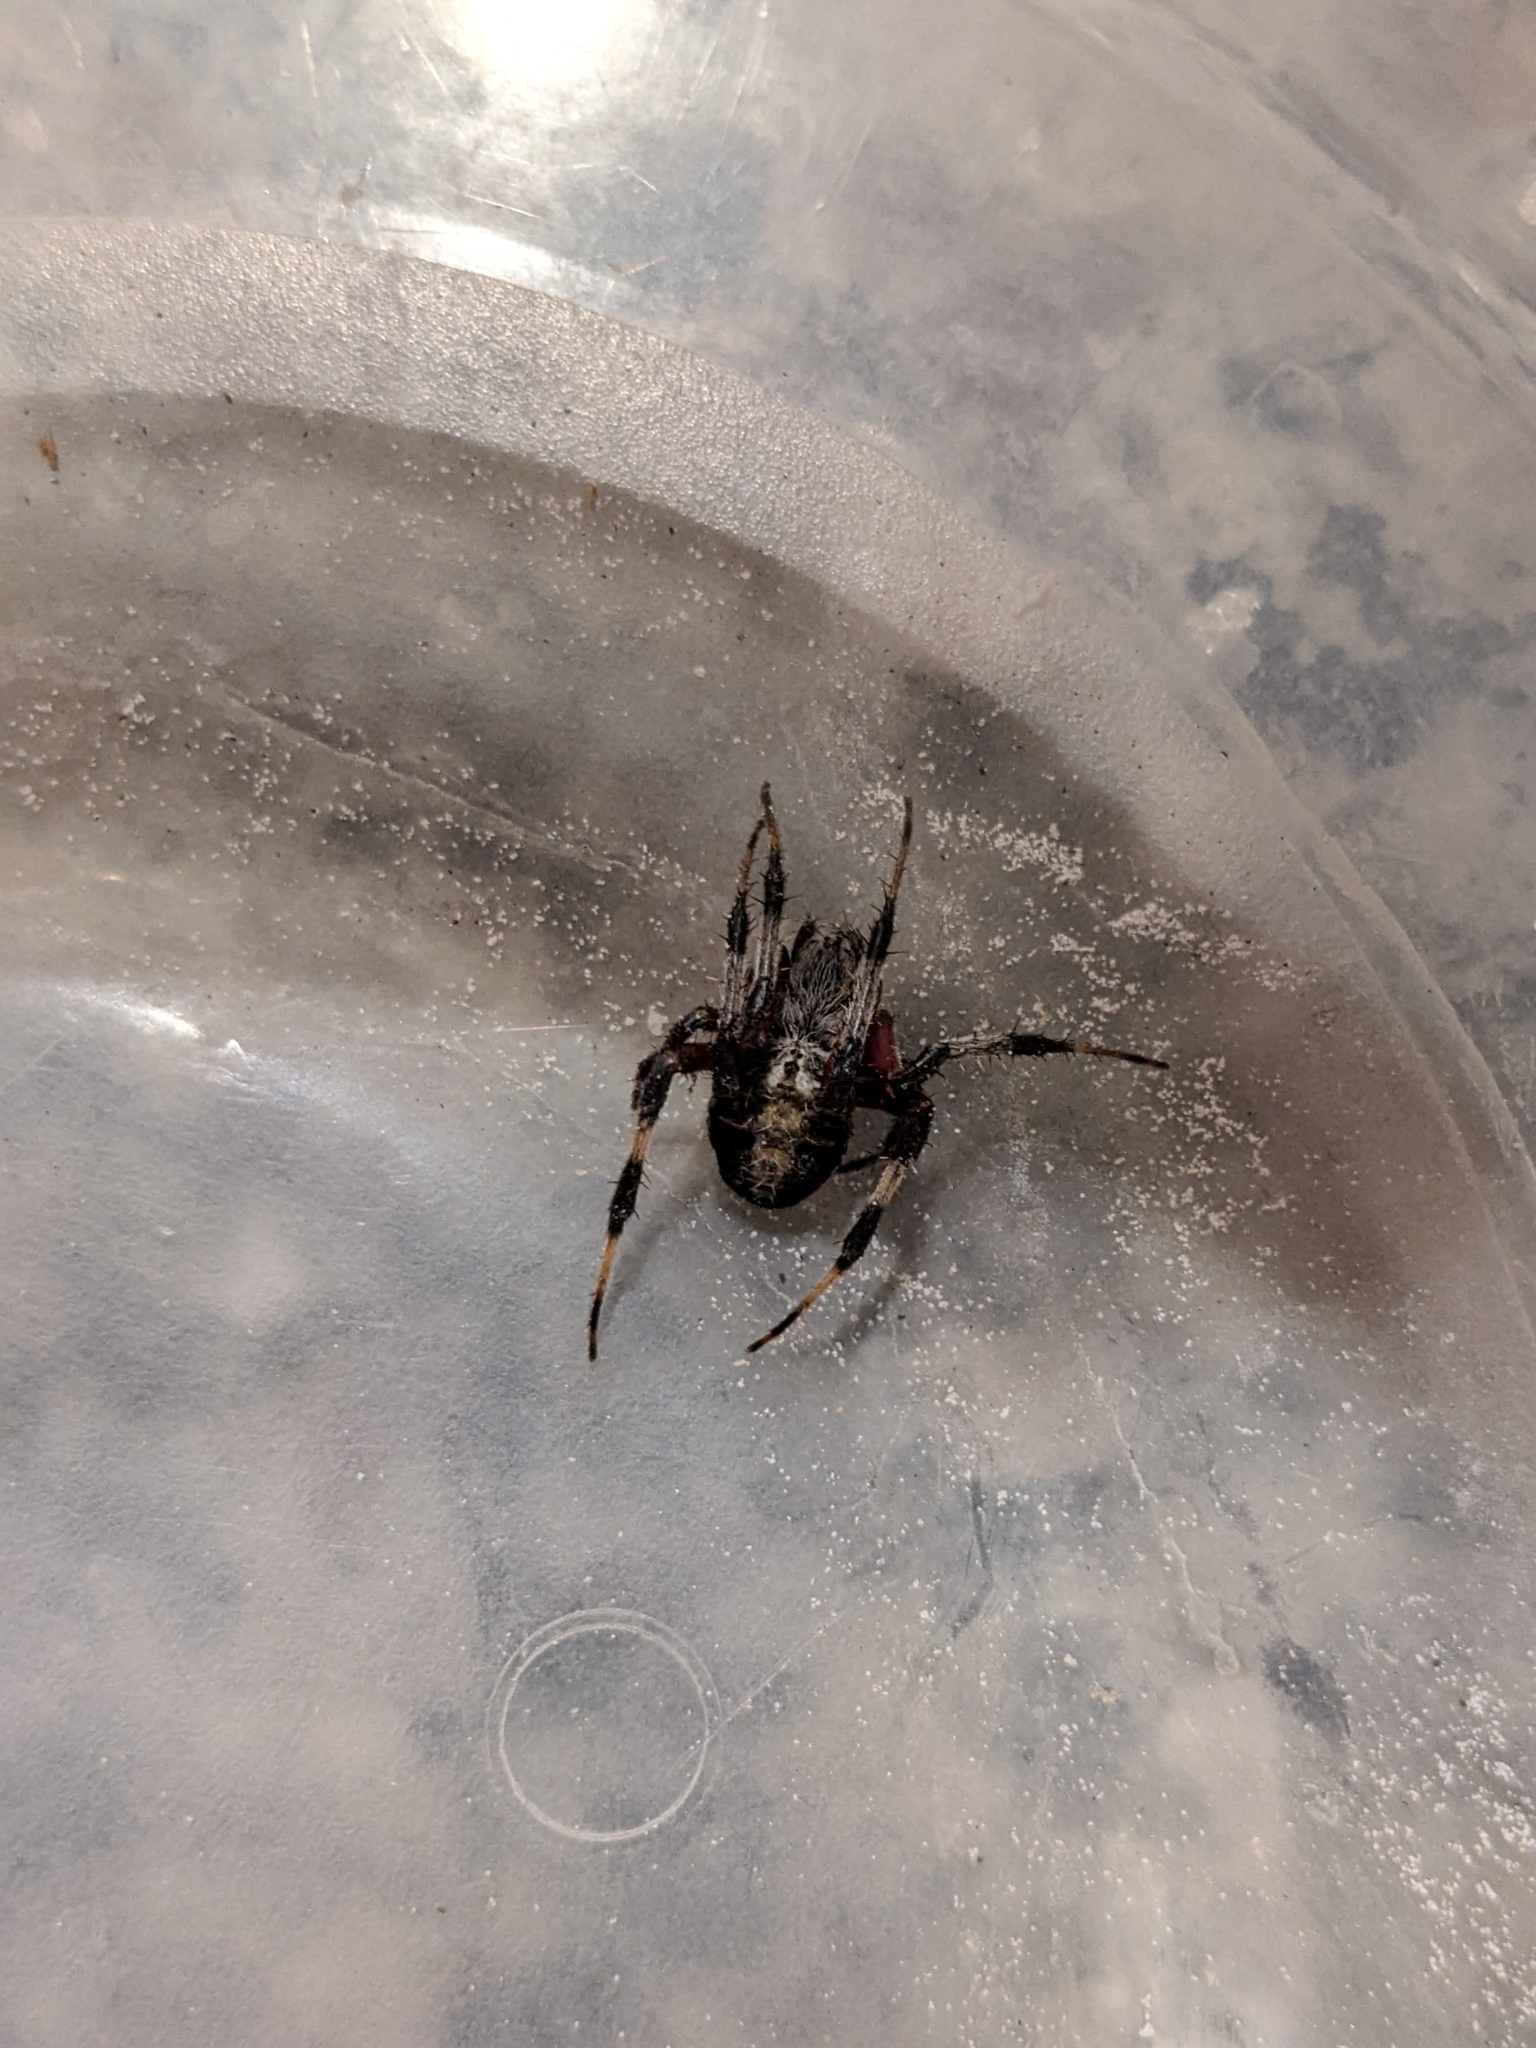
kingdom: Animalia
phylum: Arthropoda
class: Arachnida
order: Araneae
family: Araneidae
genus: Neoscona
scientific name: Neoscona domiciliorum
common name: Red-femured spotted orbweaver
